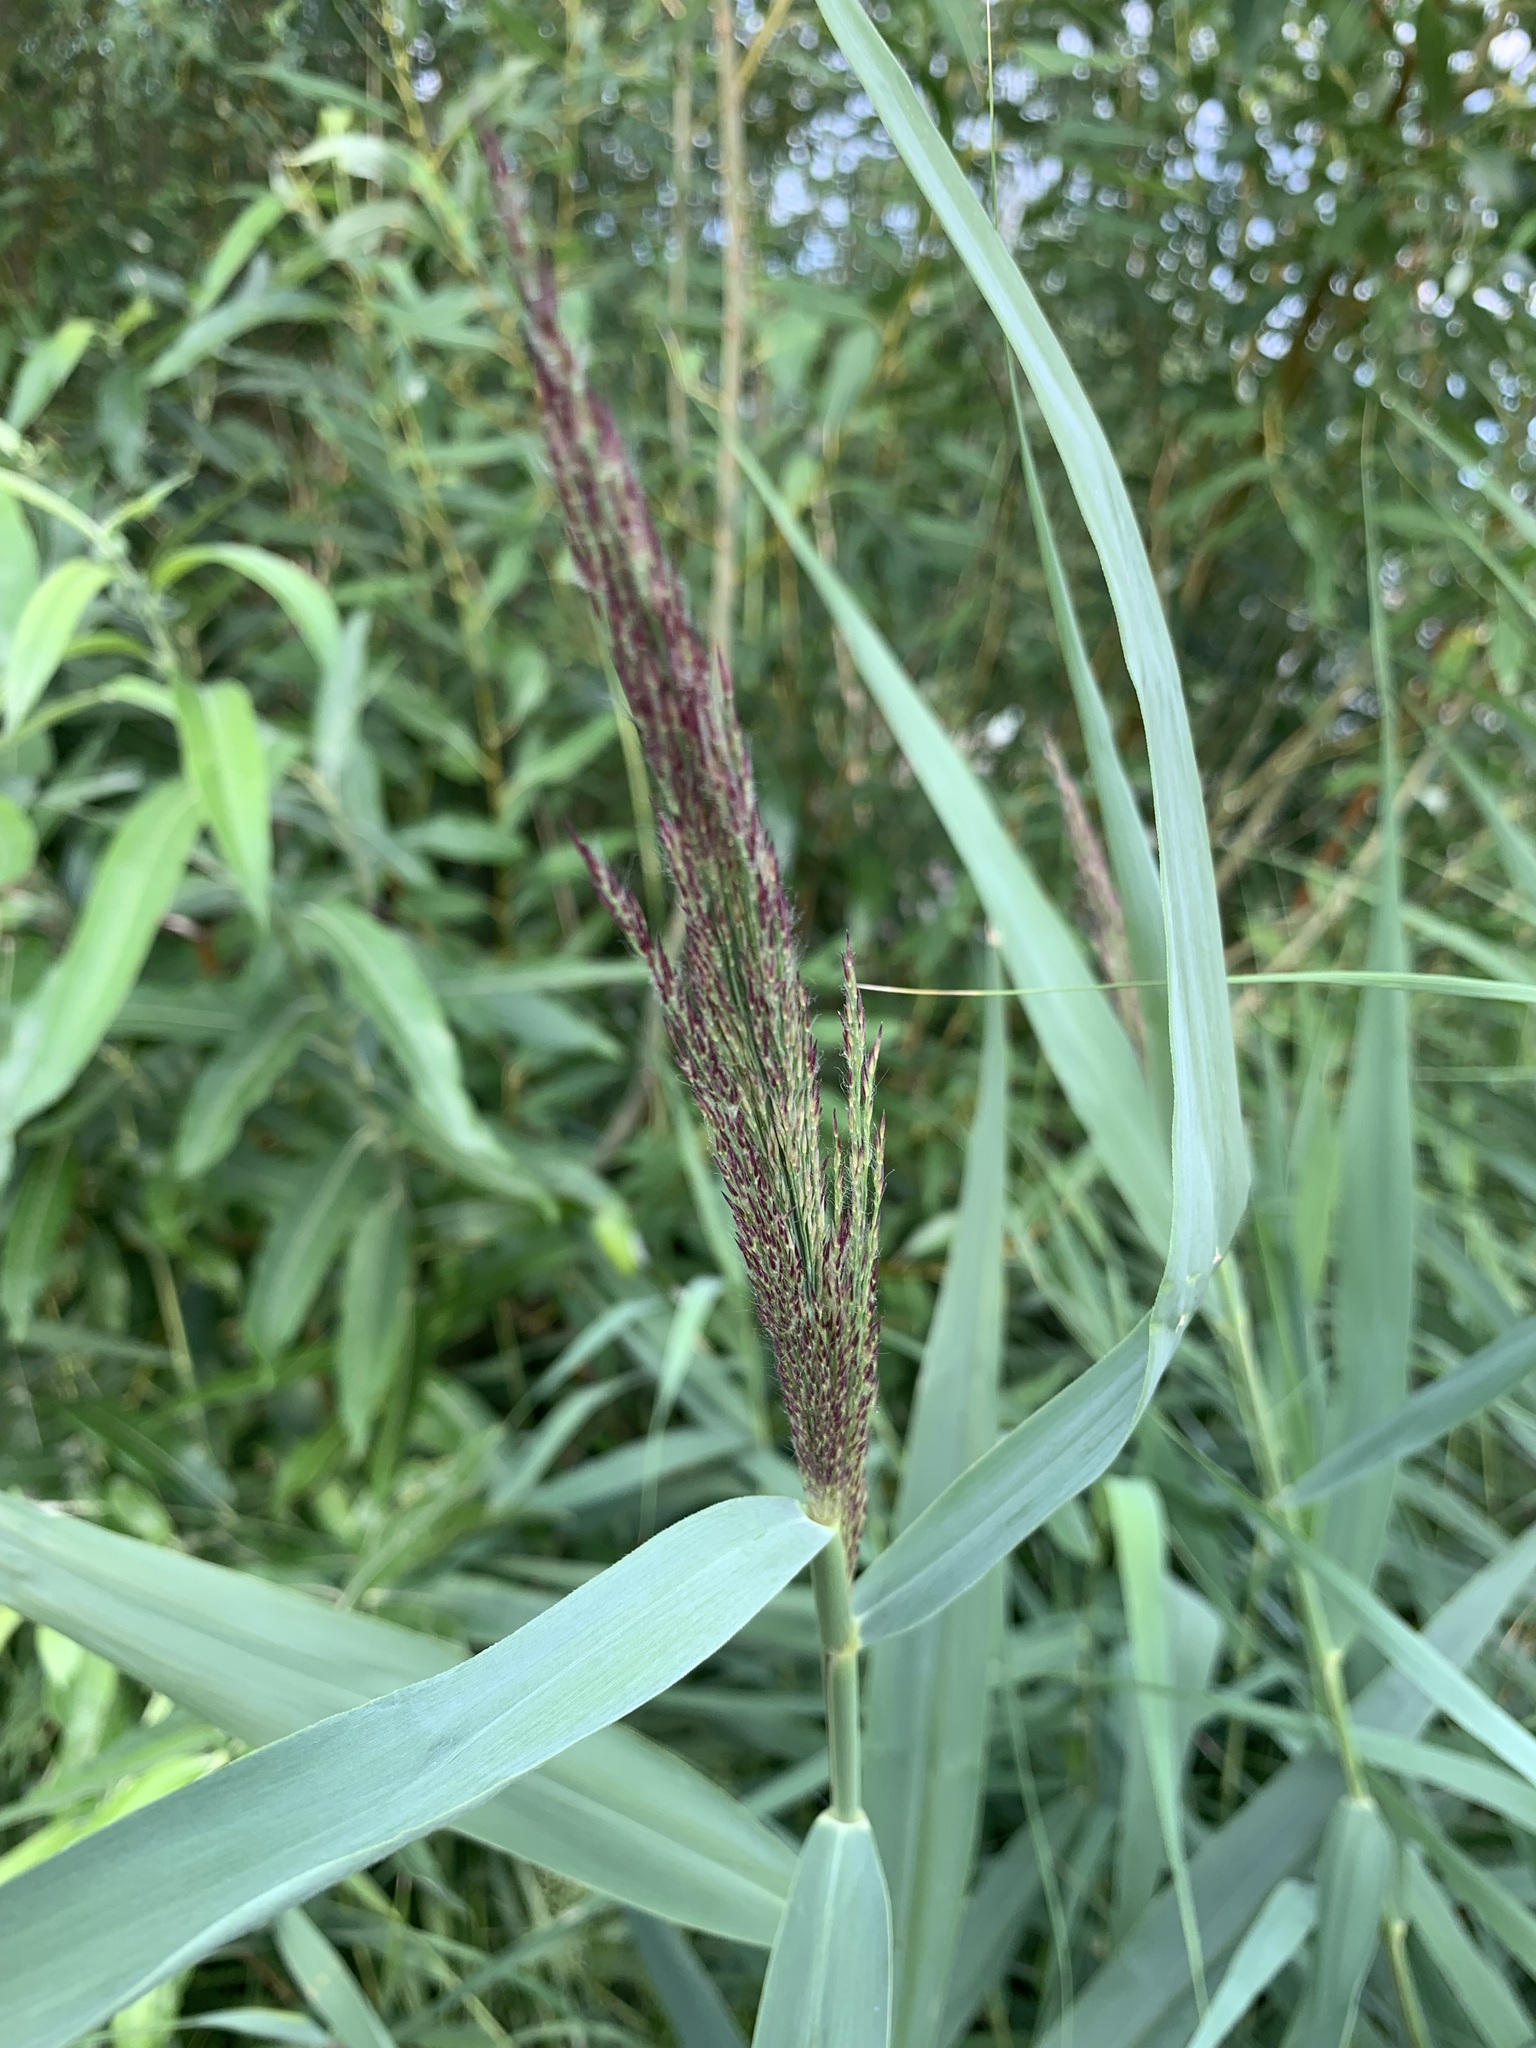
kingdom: Plantae
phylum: Tracheophyta
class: Liliopsida
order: Poales
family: Poaceae
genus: Phragmites
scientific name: Phragmites australis
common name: Common reed
